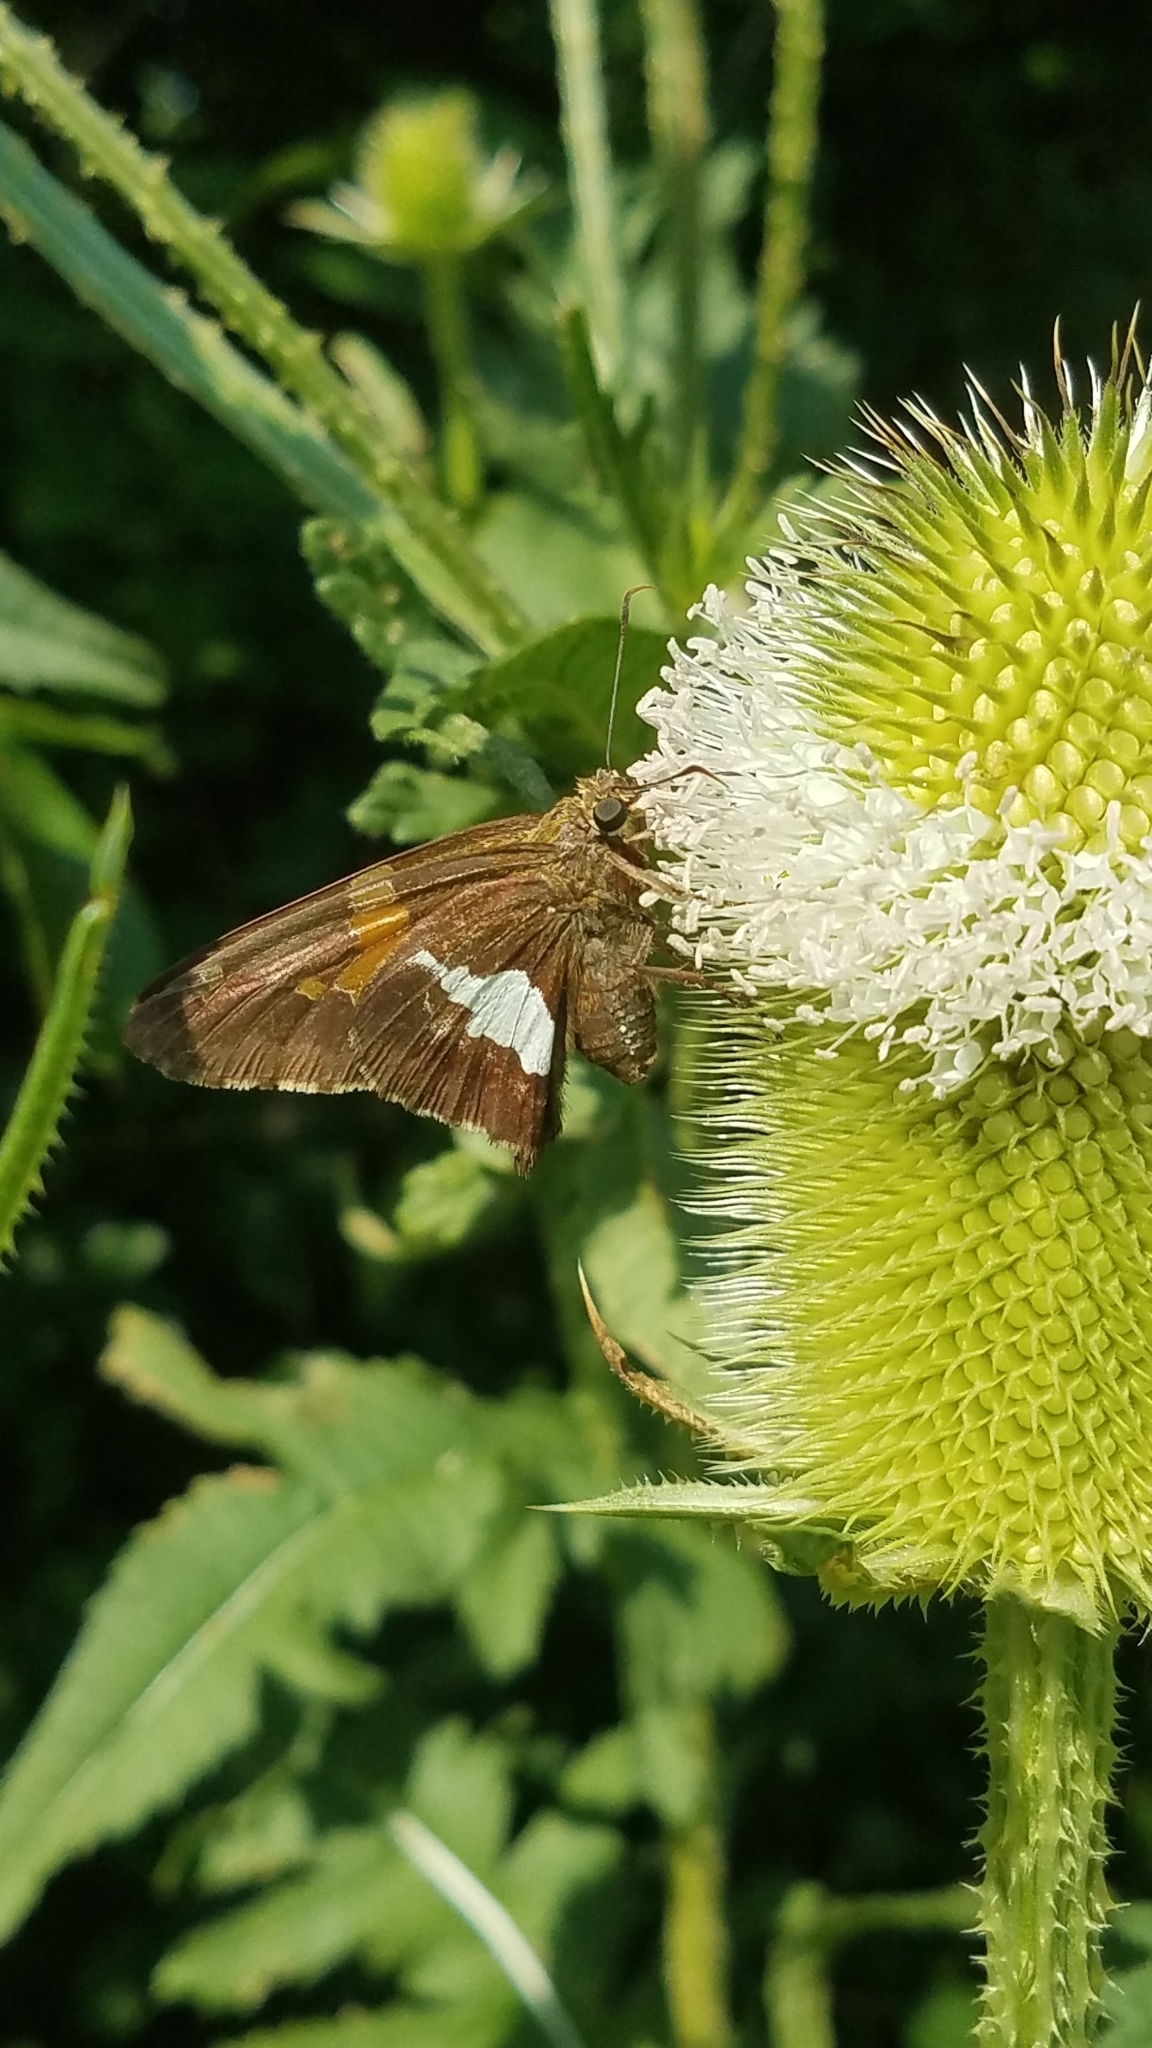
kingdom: Animalia
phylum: Arthropoda
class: Insecta
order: Lepidoptera
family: Hesperiidae
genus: Epargyreus
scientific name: Epargyreus clarus
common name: Silver-spotted skipper
